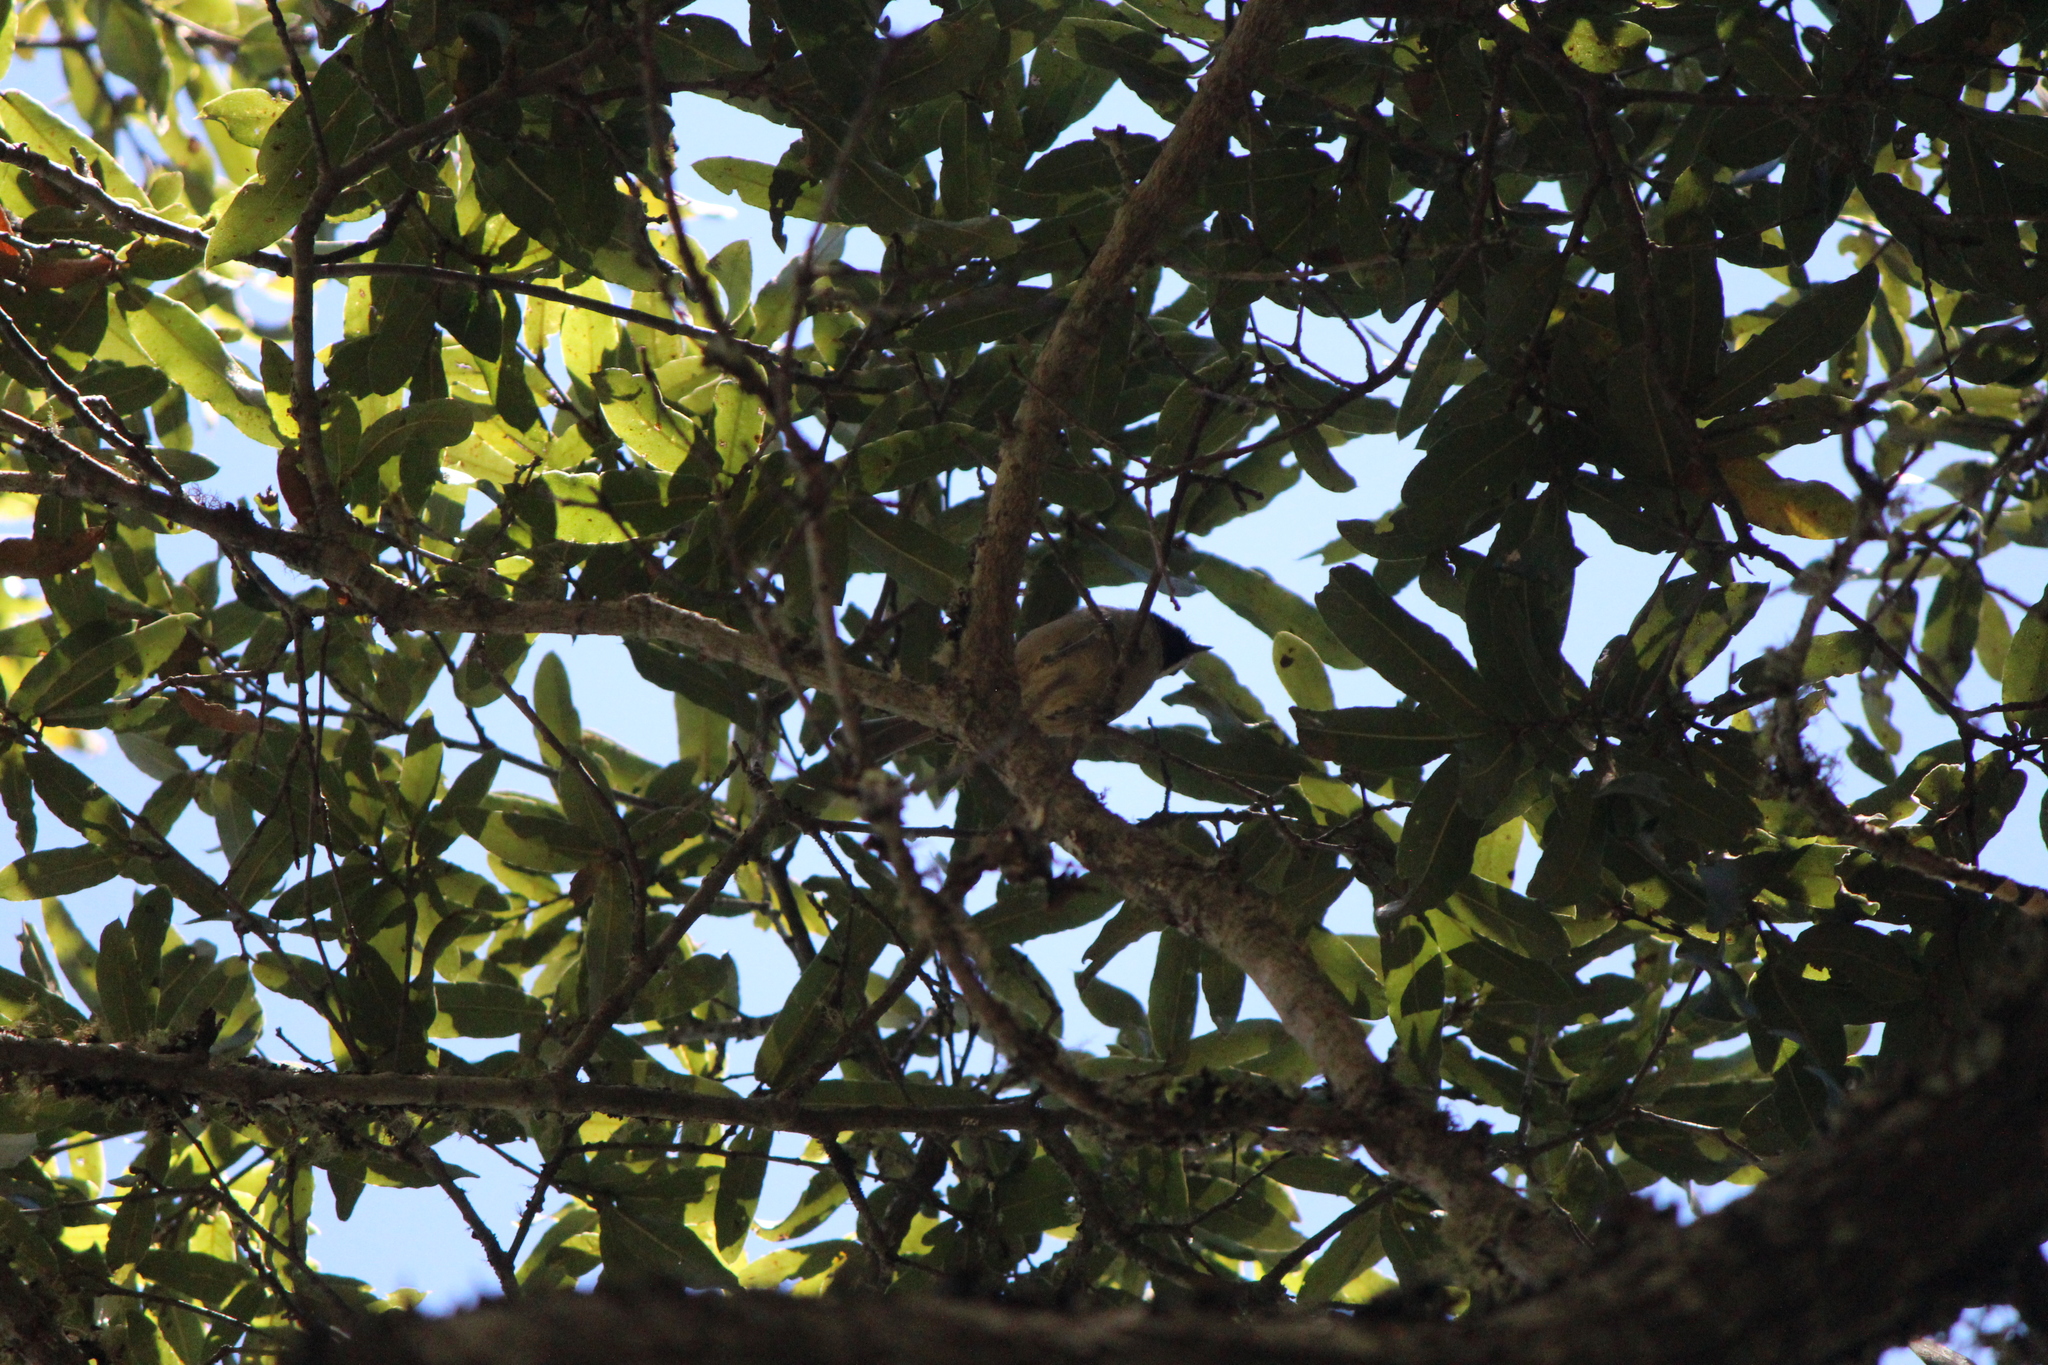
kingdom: Animalia
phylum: Chordata
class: Aves
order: Passeriformes
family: Paridae
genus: Baeolophus
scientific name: Baeolophus wollweberi
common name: Bridled titmouse
